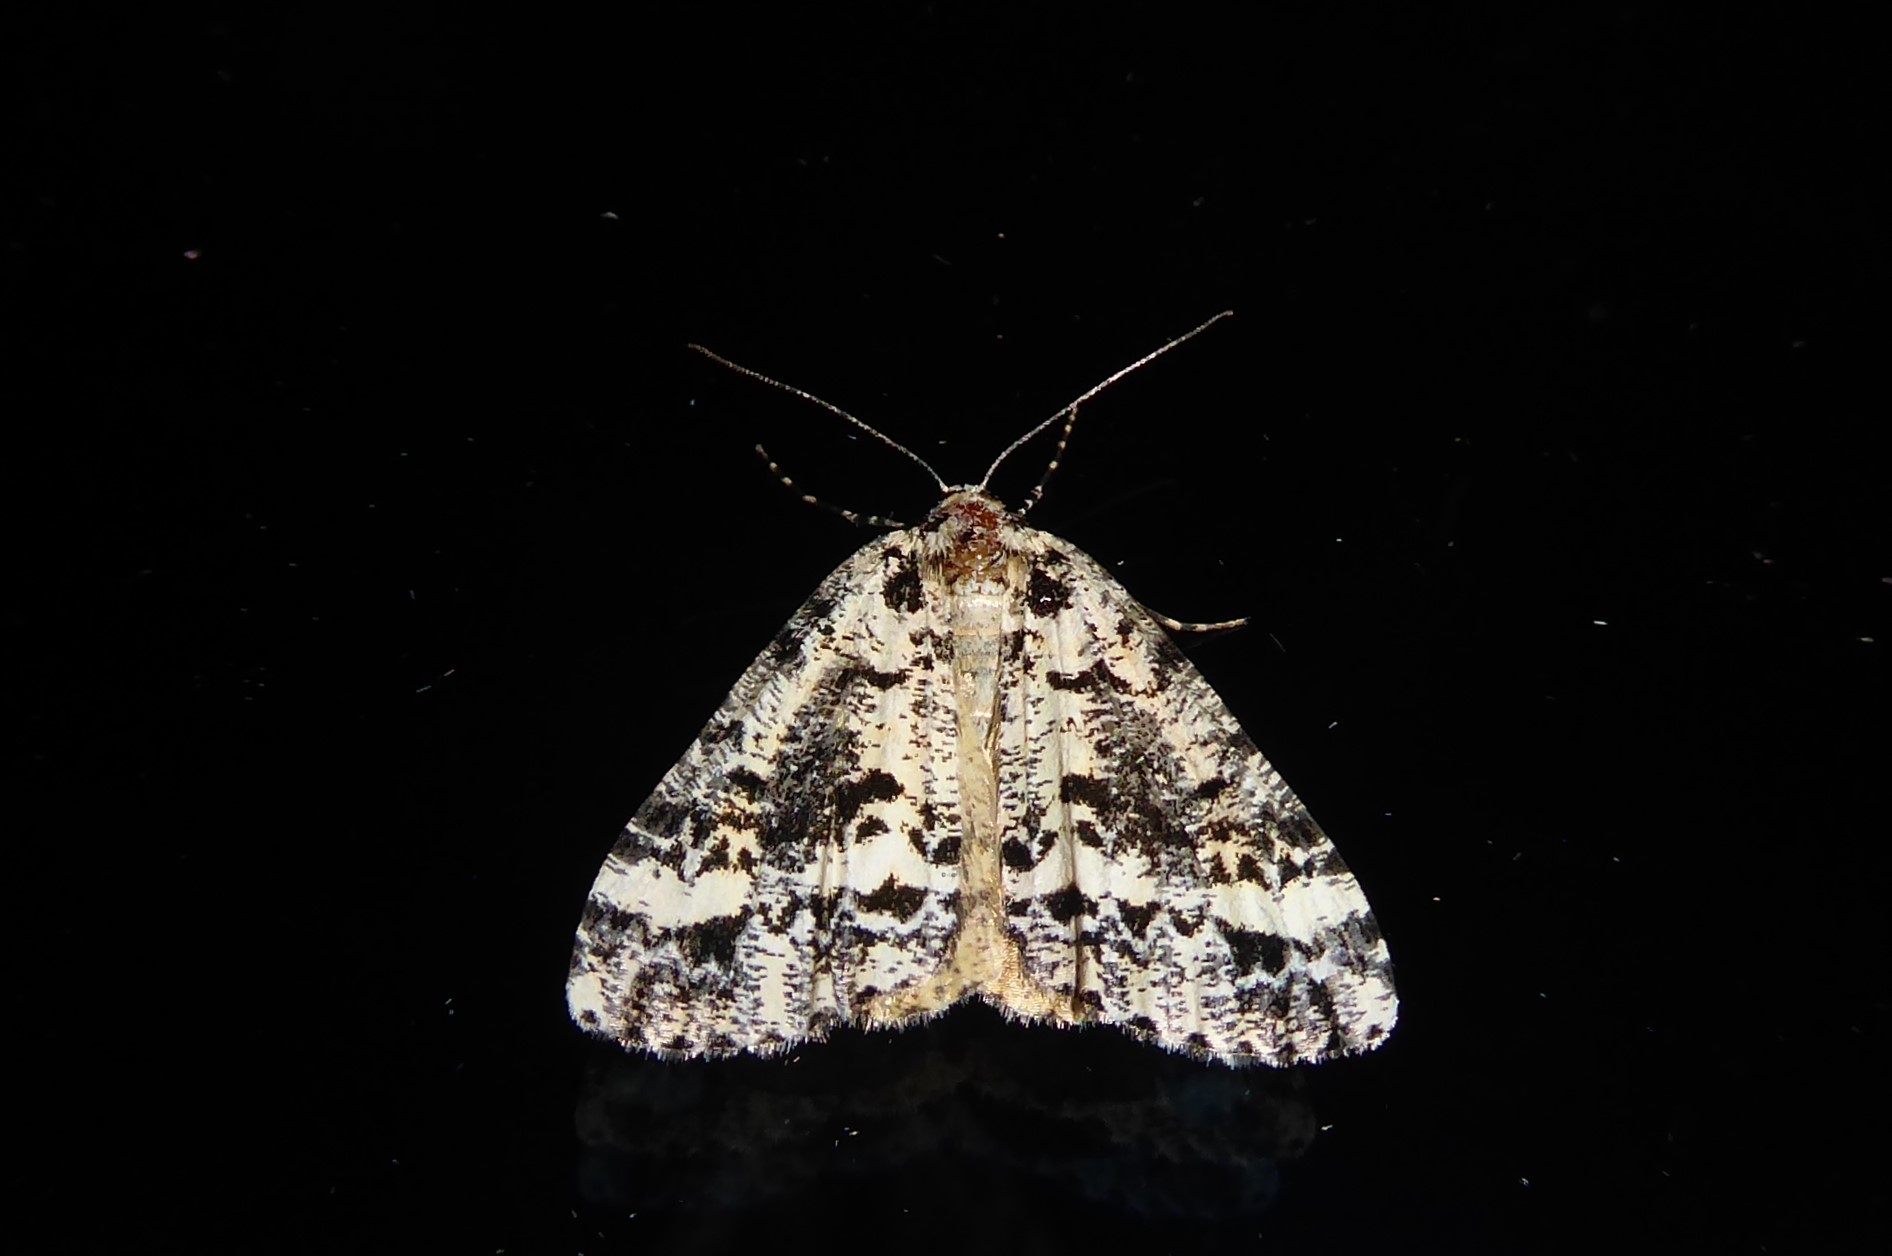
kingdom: Animalia
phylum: Arthropoda
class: Insecta
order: Lepidoptera
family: Geometridae
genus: Pseudocoremia
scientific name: Pseudocoremia leucelaea
